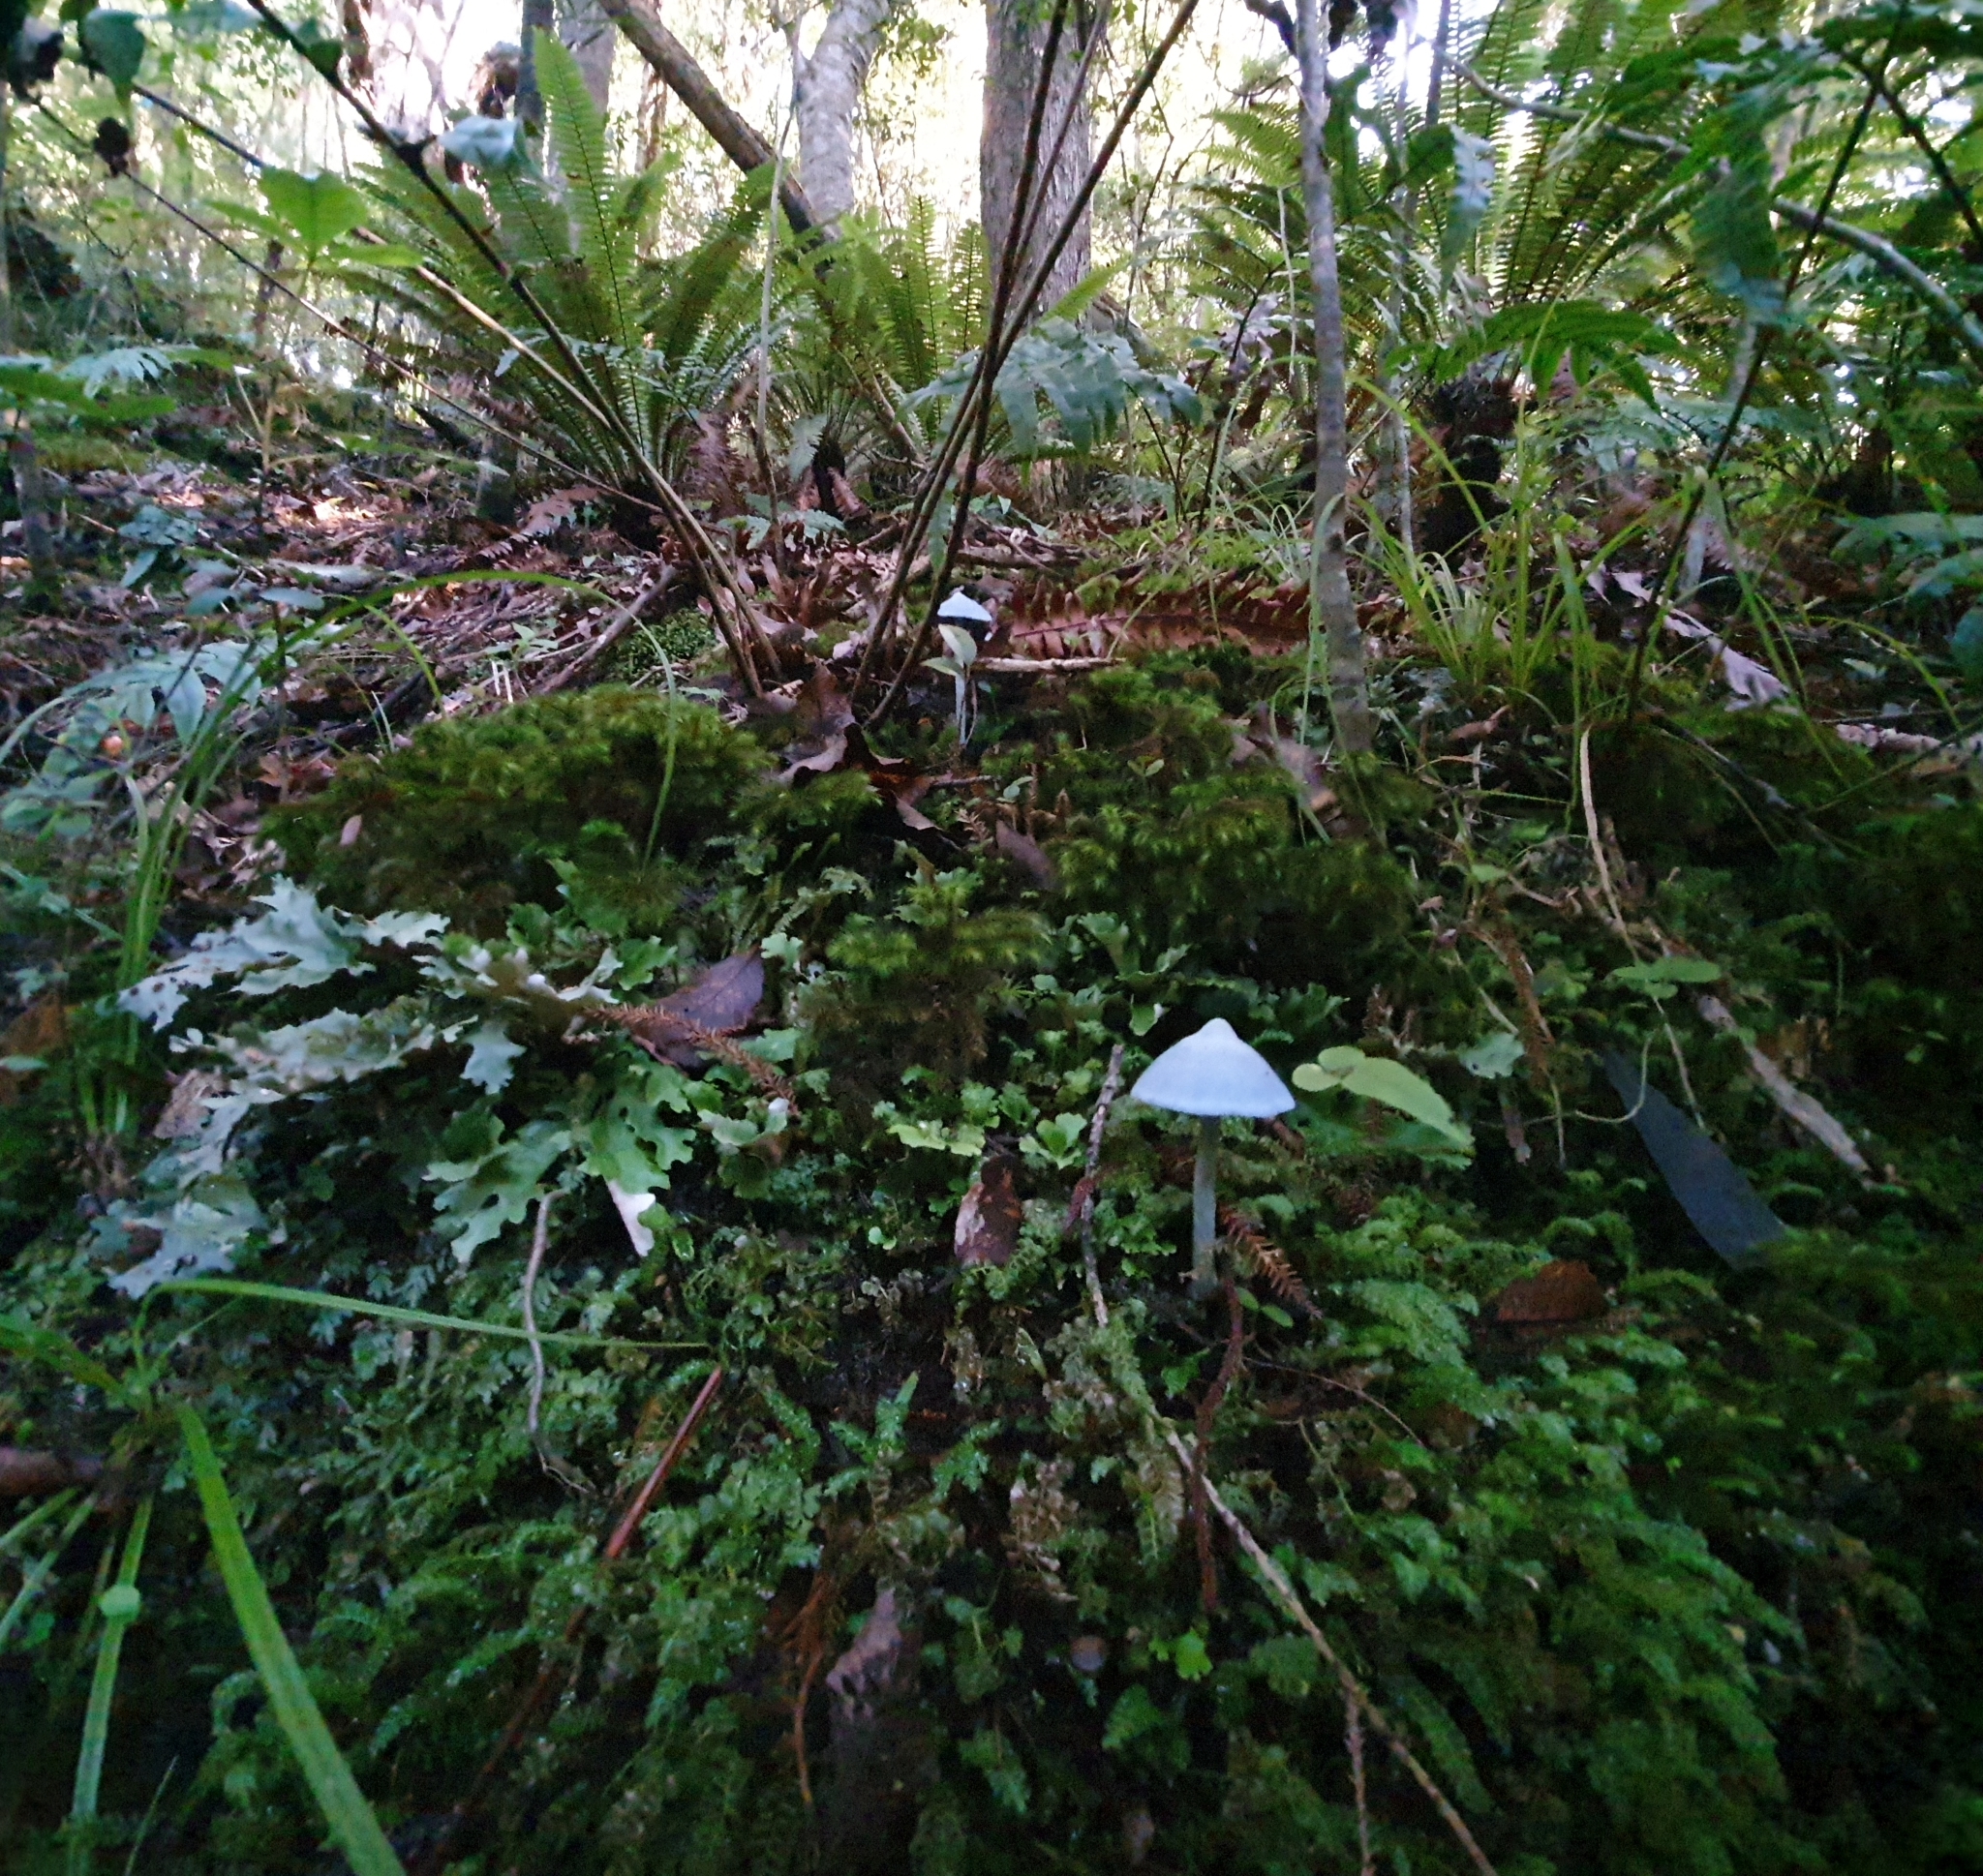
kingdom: Fungi
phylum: Basidiomycota
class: Agaricomycetes
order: Agaricales
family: Entolomataceae
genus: Entoloma
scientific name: Entoloma hochstetteri
